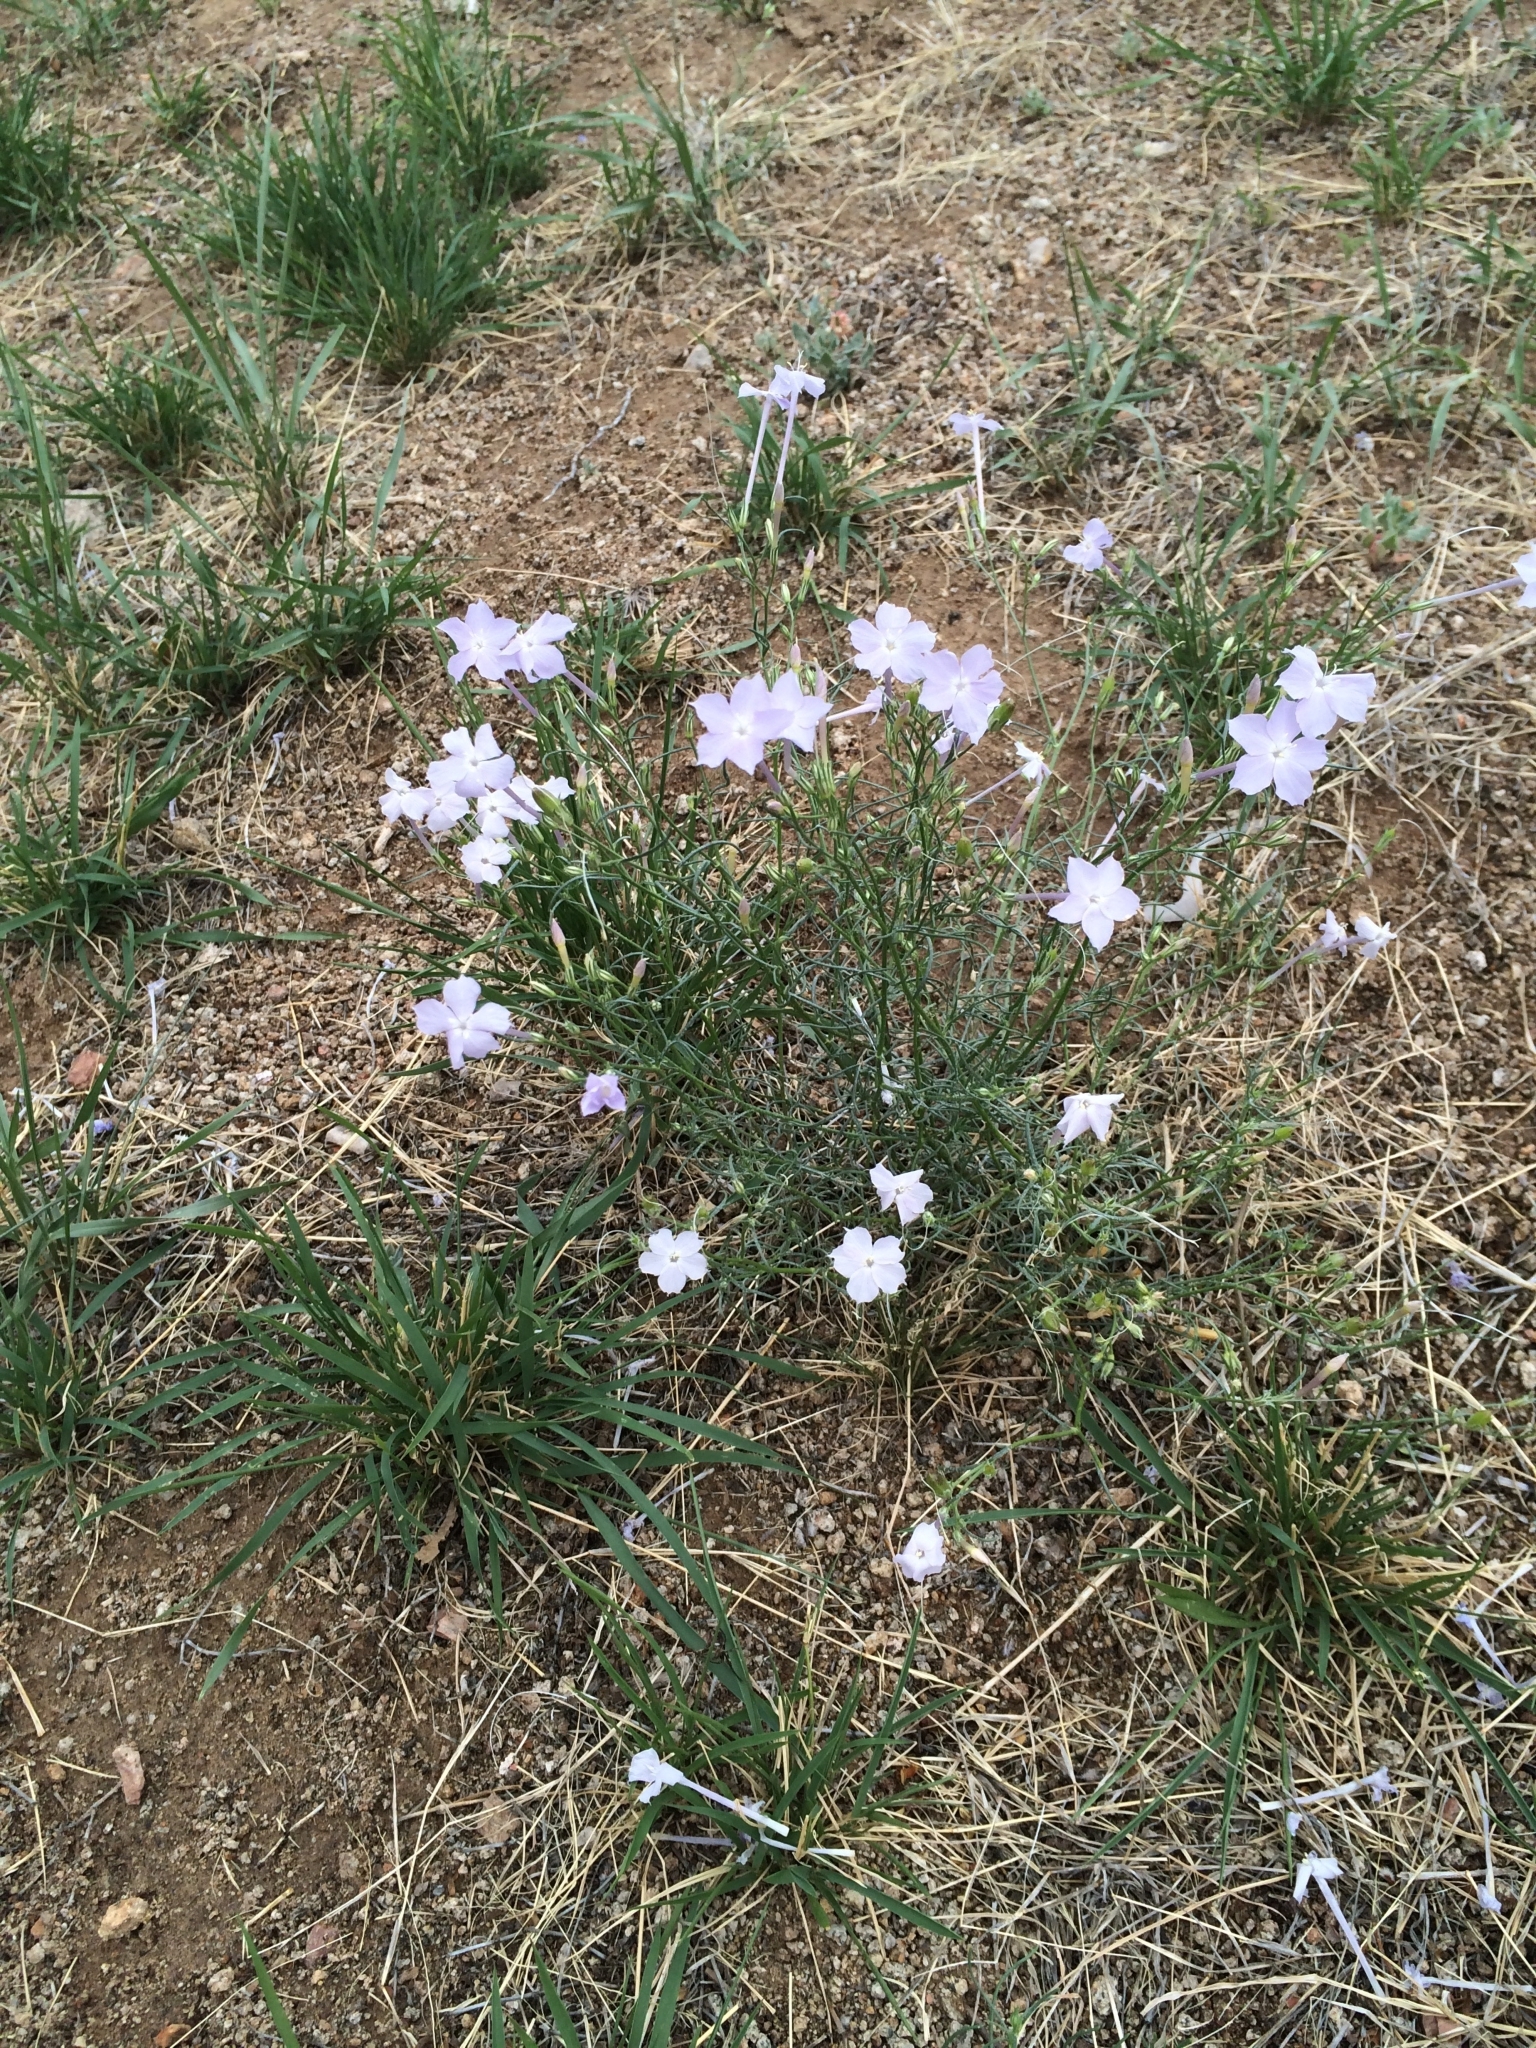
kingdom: Plantae
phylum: Tracheophyta
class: Magnoliopsida
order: Ericales
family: Polemoniaceae
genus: Ipomopsis
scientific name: Ipomopsis longiflora
